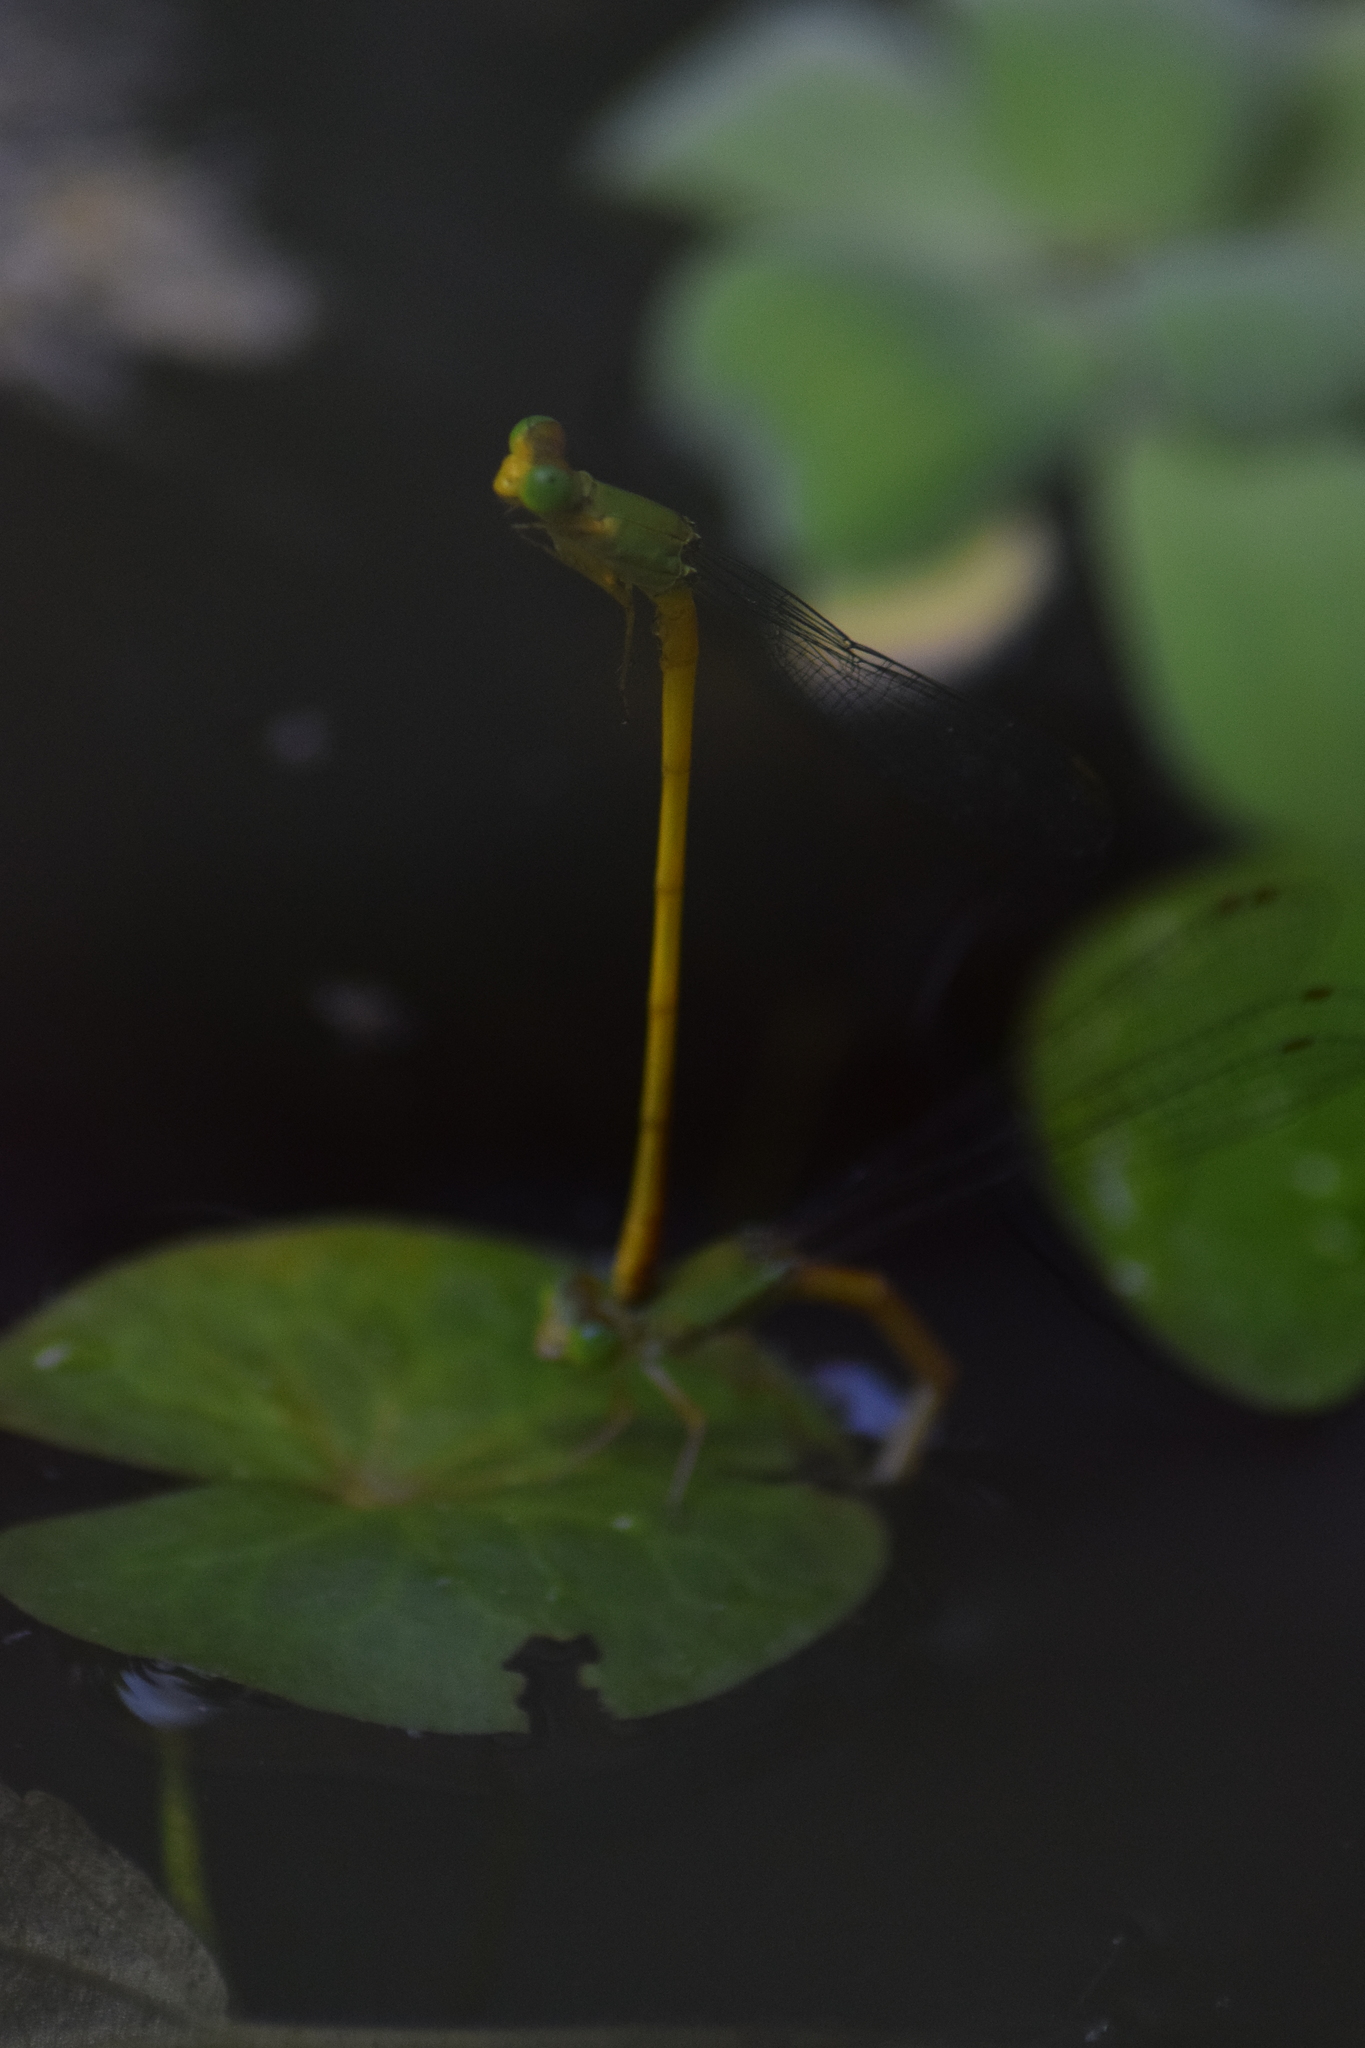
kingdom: Animalia
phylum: Arthropoda
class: Insecta
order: Odonata
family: Coenagrionidae
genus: Ceriagrion
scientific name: Ceriagrion coromandelianum
